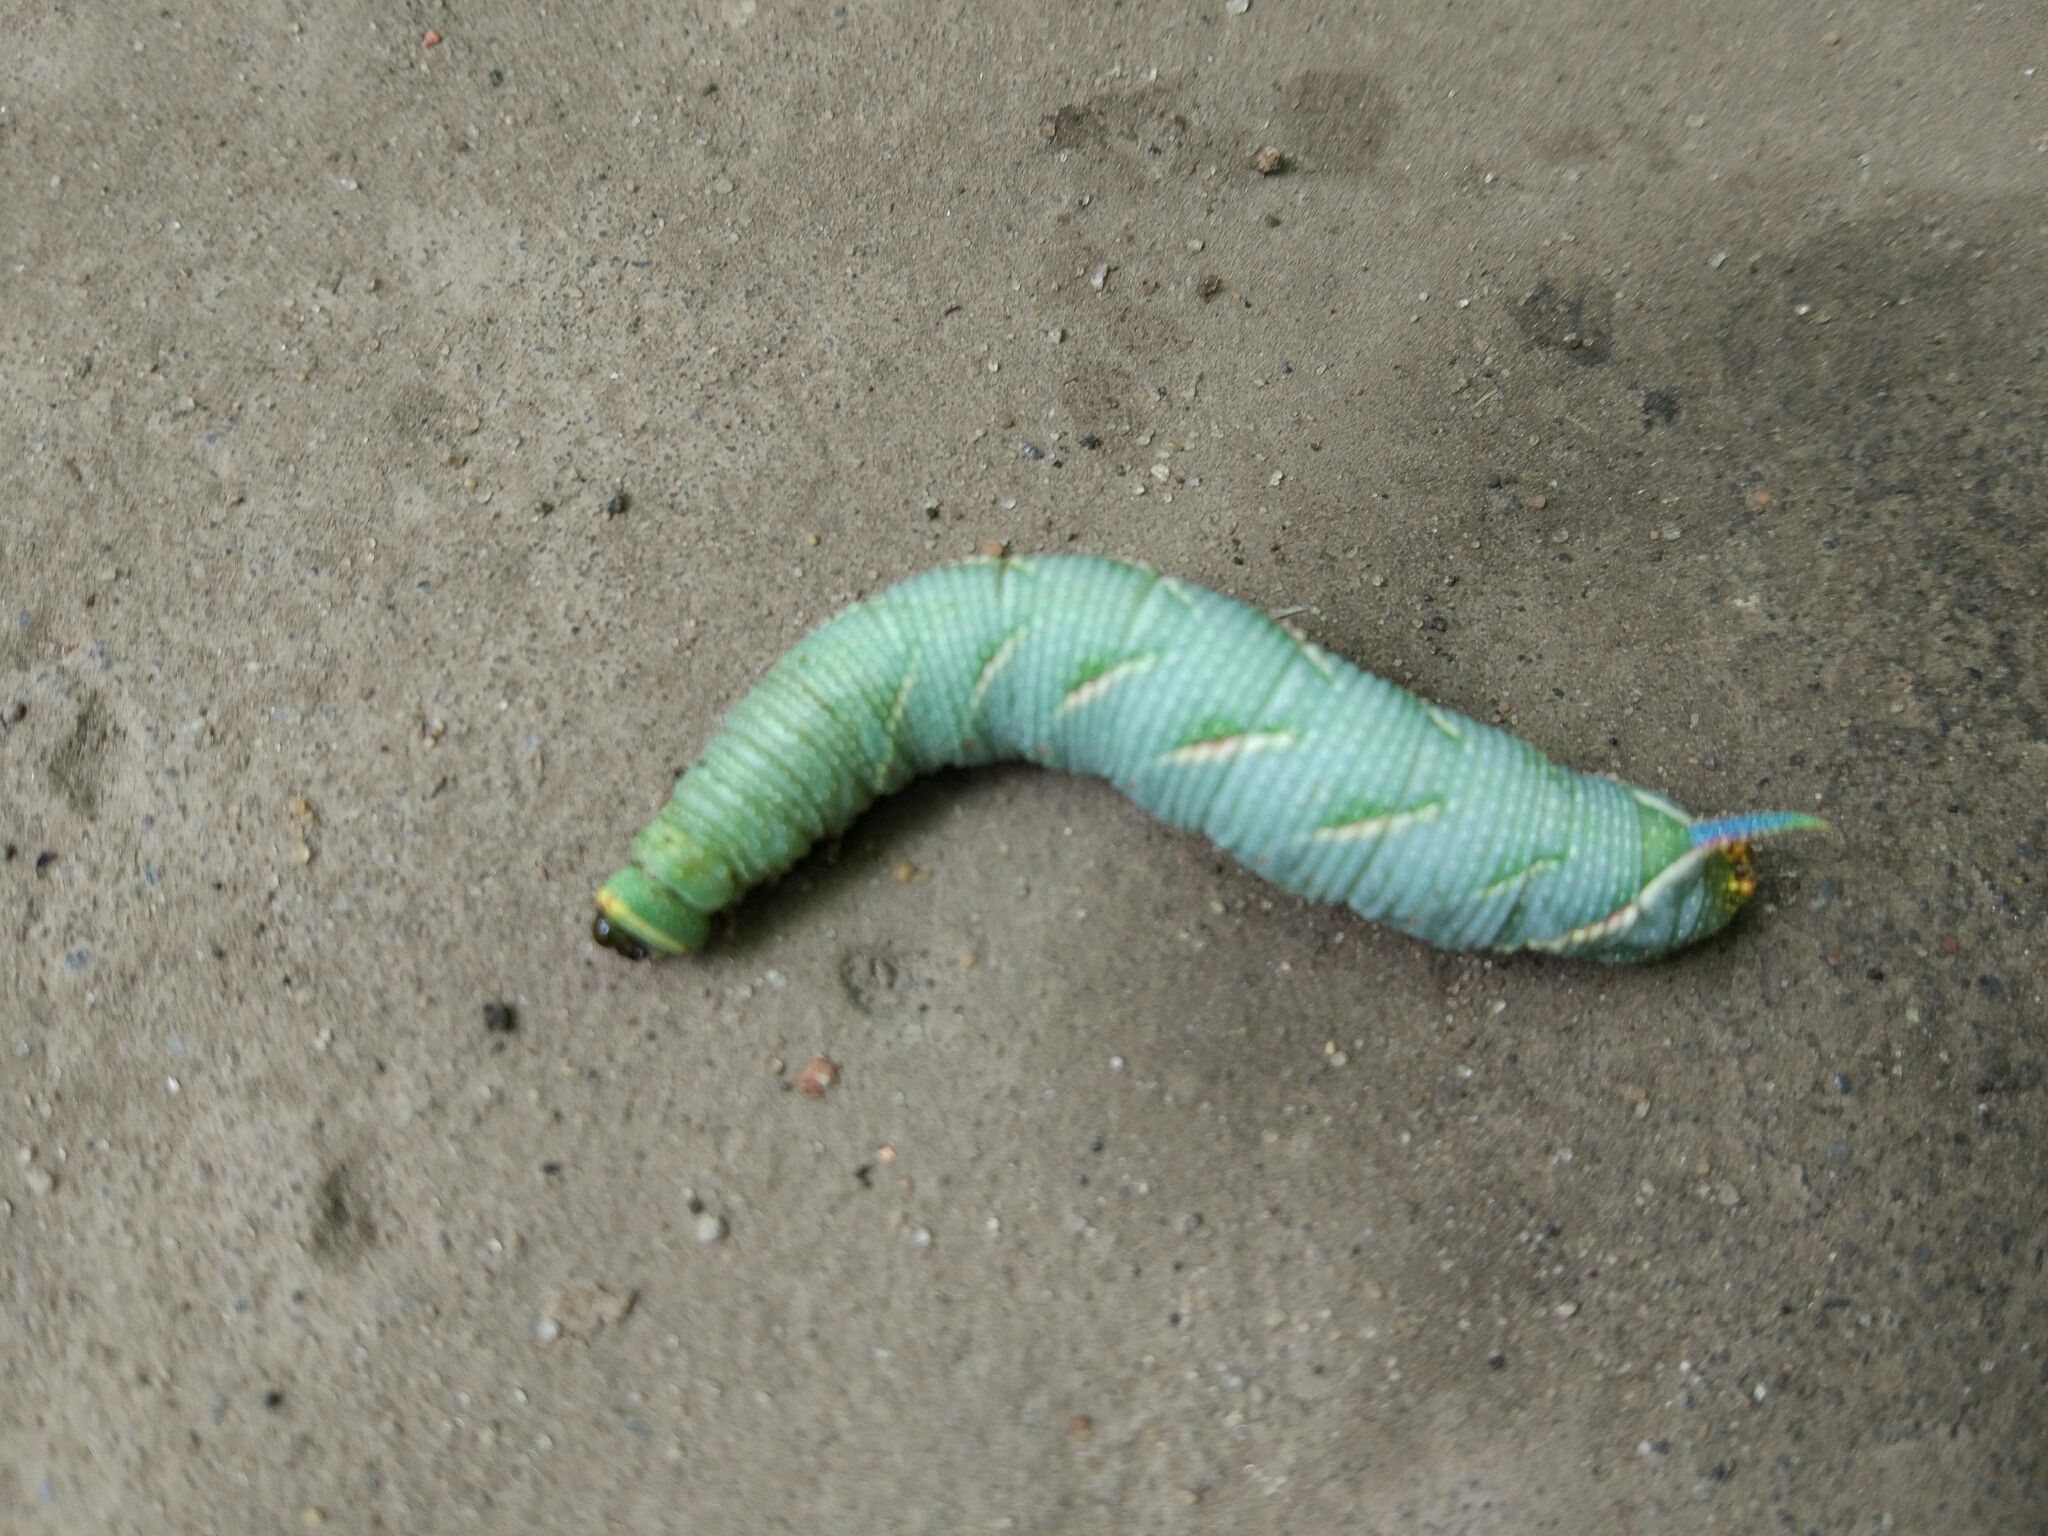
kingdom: Animalia
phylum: Arthropoda
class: Insecta
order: Lepidoptera
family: Sphingidae
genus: Mimas
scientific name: Mimas tiliae
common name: Lime hawk-moth
